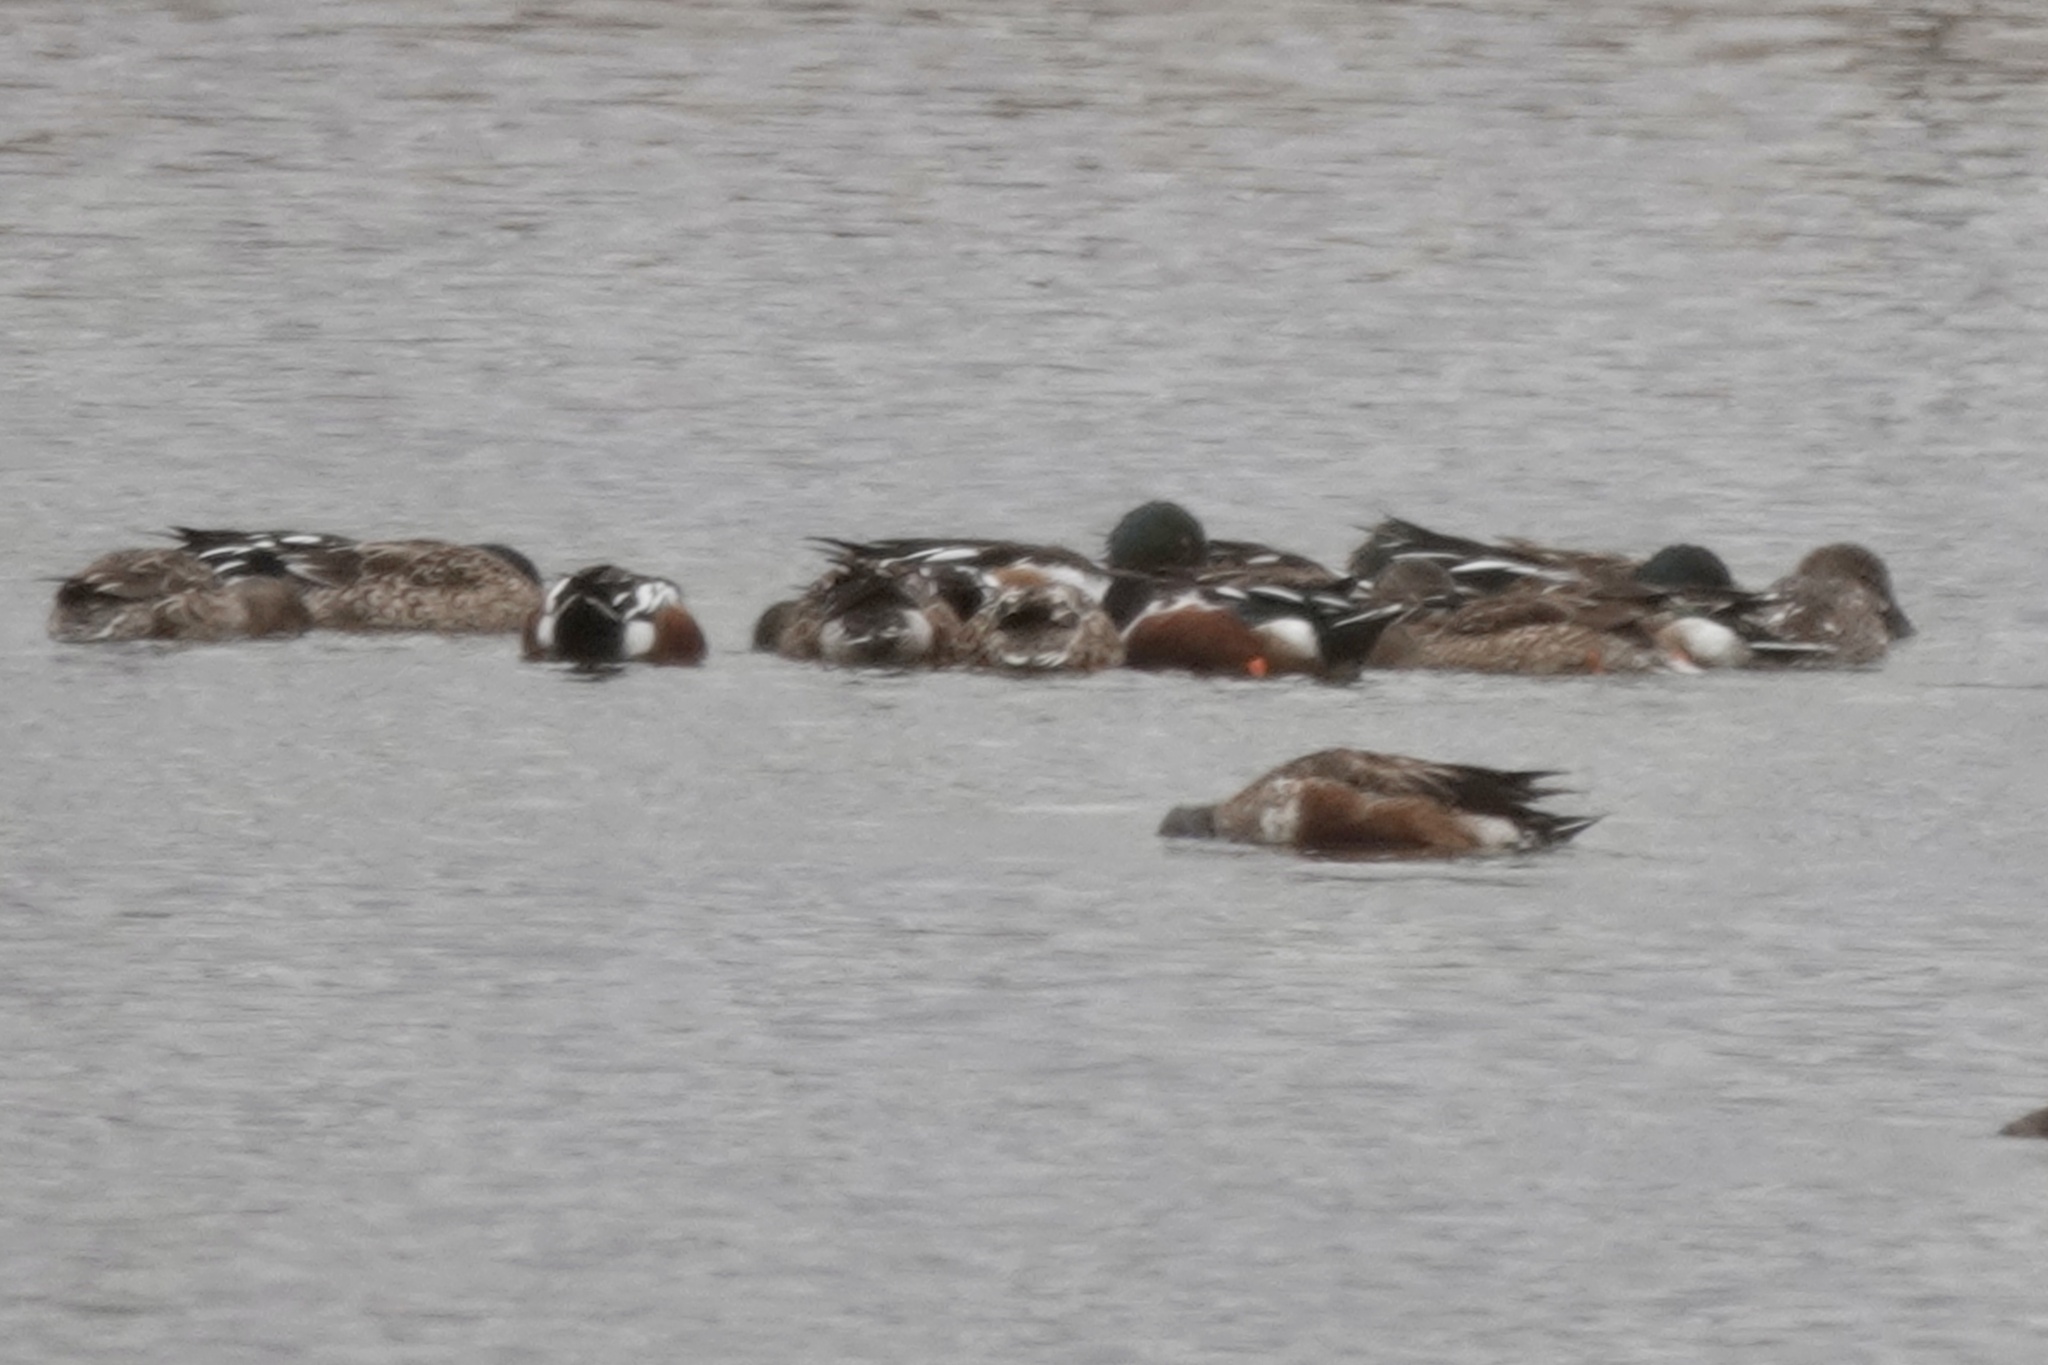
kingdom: Animalia
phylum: Chordata
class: Aves
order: Anseriformes
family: Anatidae
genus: Spatula
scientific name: Spatula clypeata
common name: Northern shoveler
